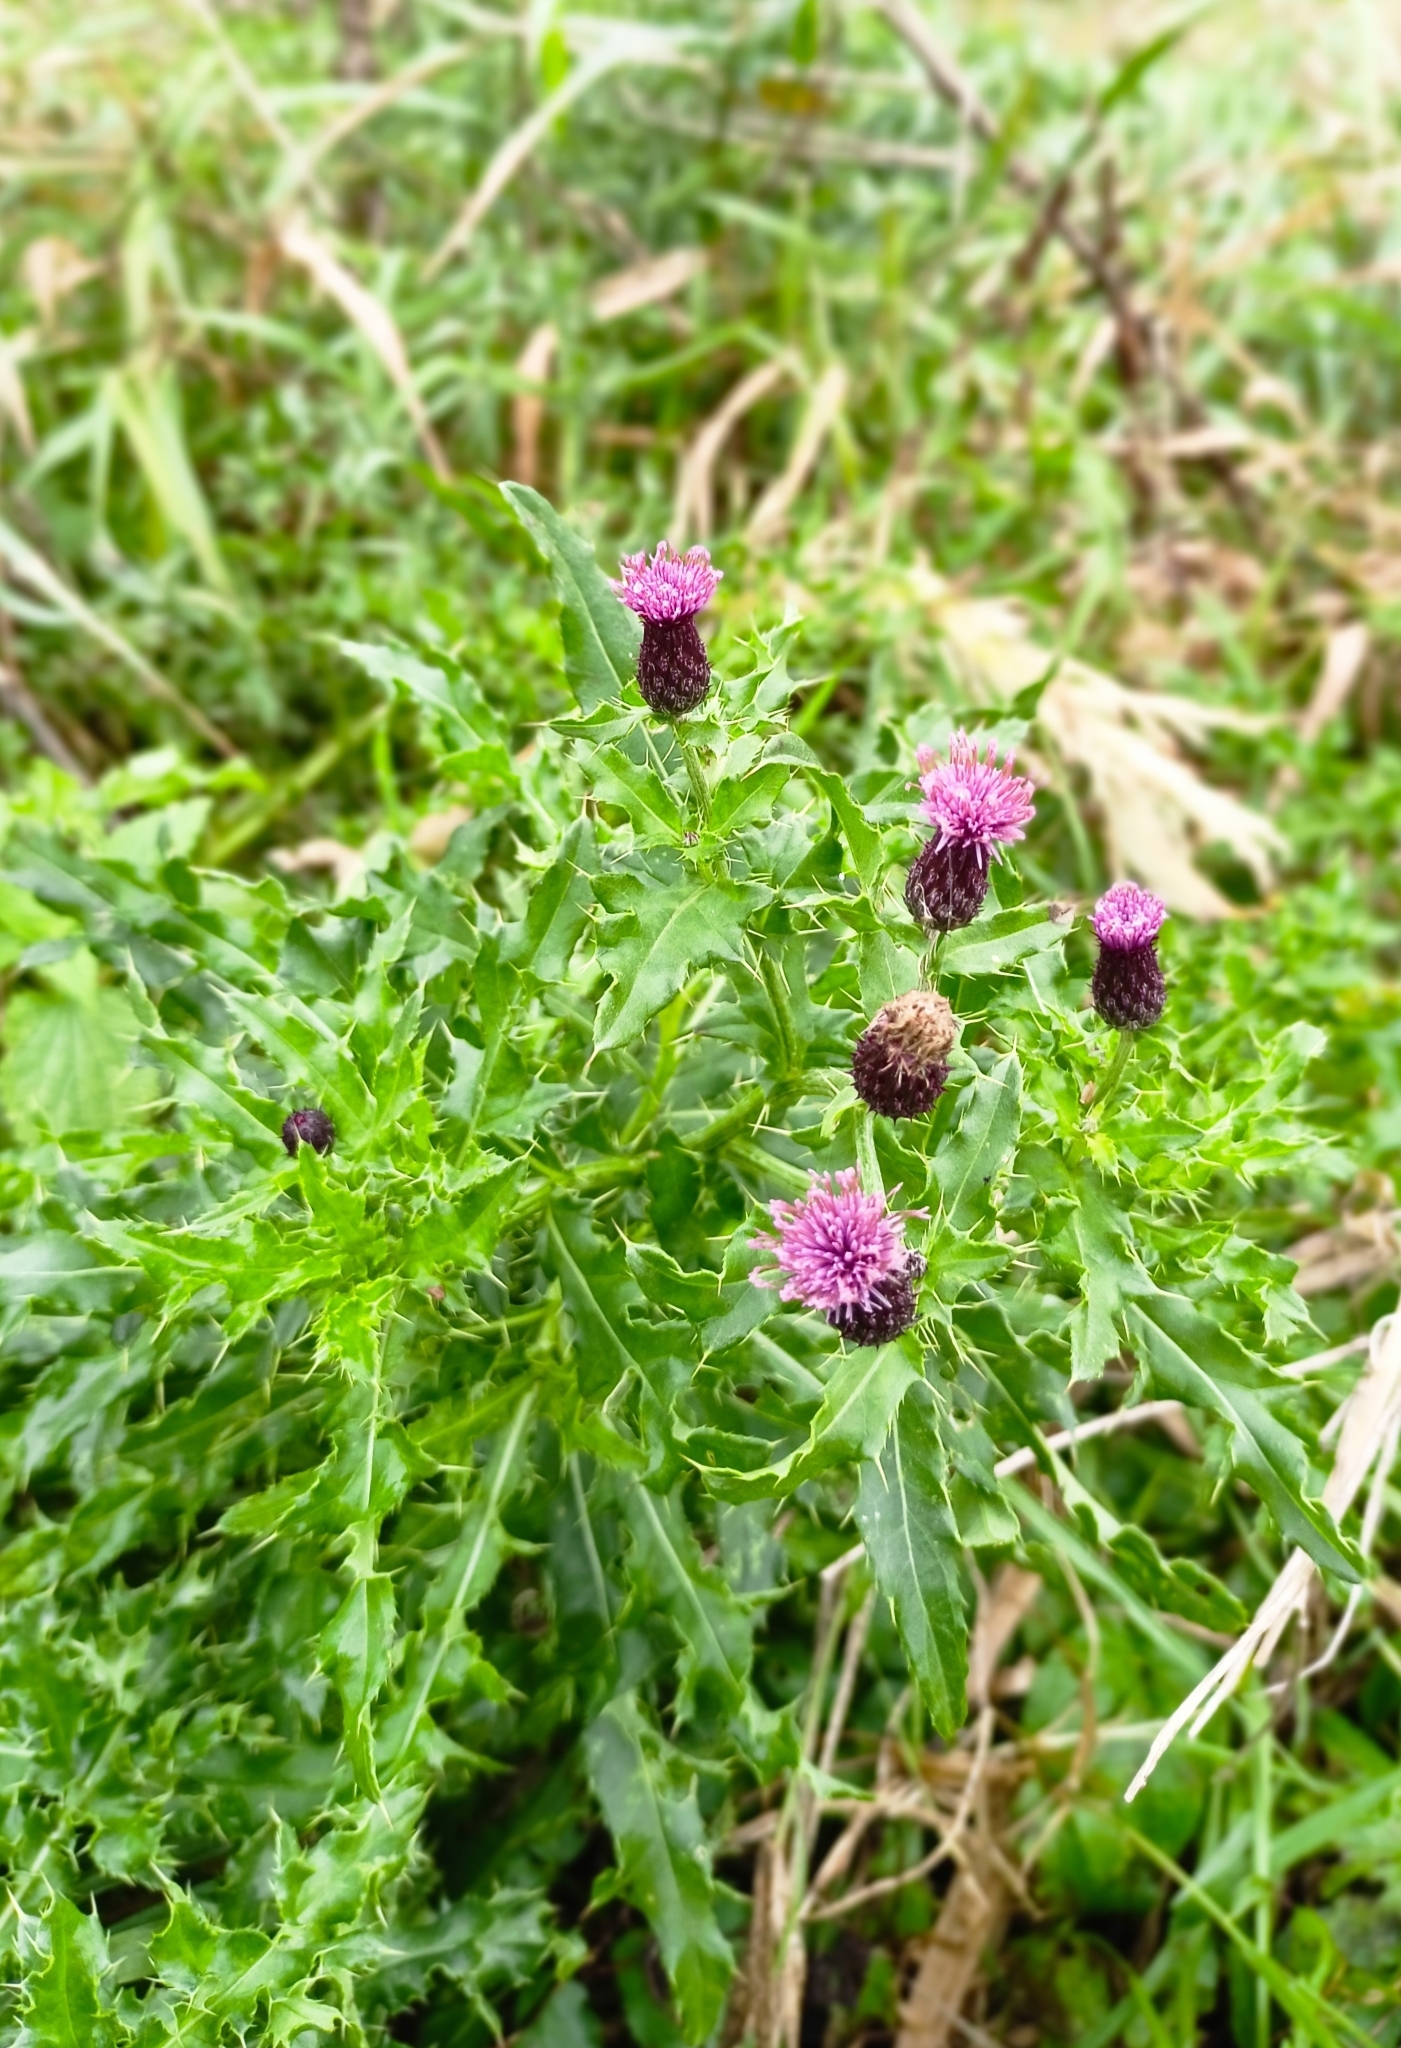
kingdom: Plantae
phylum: Tracheophyta
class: Magnoliopsida
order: Asterales
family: Asteraceae
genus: Cirsium
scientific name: Cirsium arvense
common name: Creeping thistle
